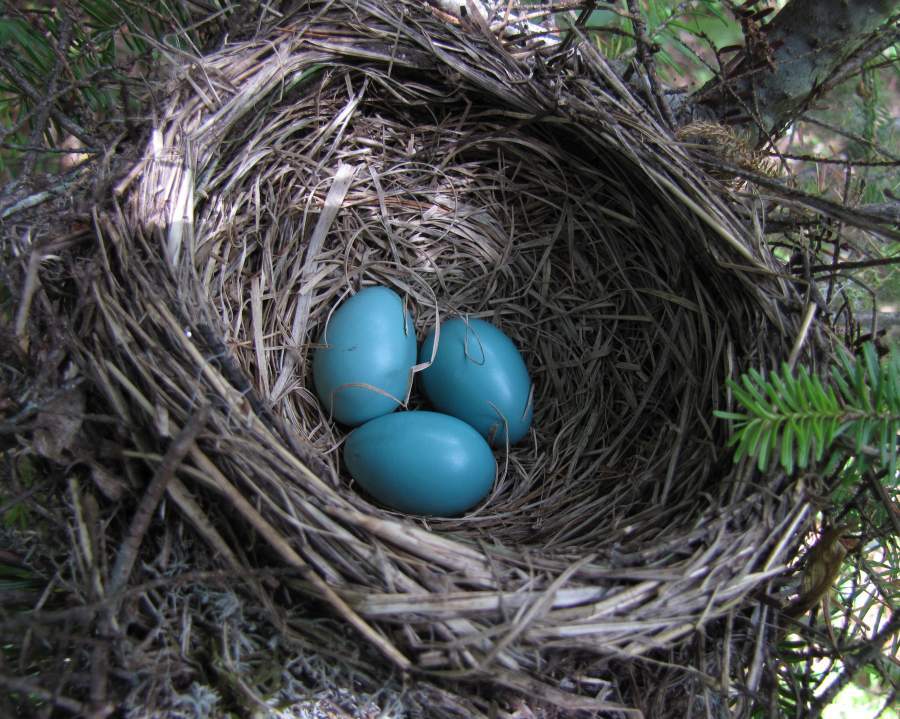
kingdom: Animalia
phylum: Chordata
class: Aves
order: Passeriformes
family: Turdidae
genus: Turdus
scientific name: Turdus migratorius
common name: American robin
